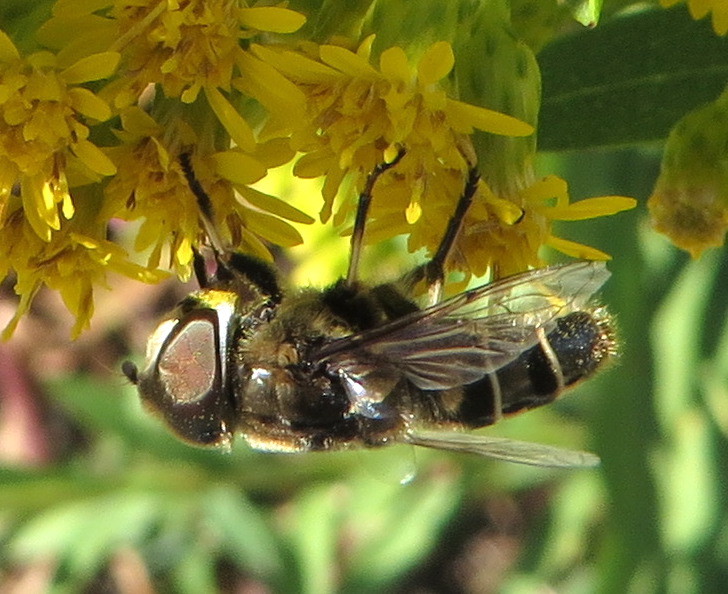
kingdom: Animalia
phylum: Arthropoda
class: Insecta
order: Diptera
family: Syrphidae
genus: Eristalis
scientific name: Eristalis dimidiata
